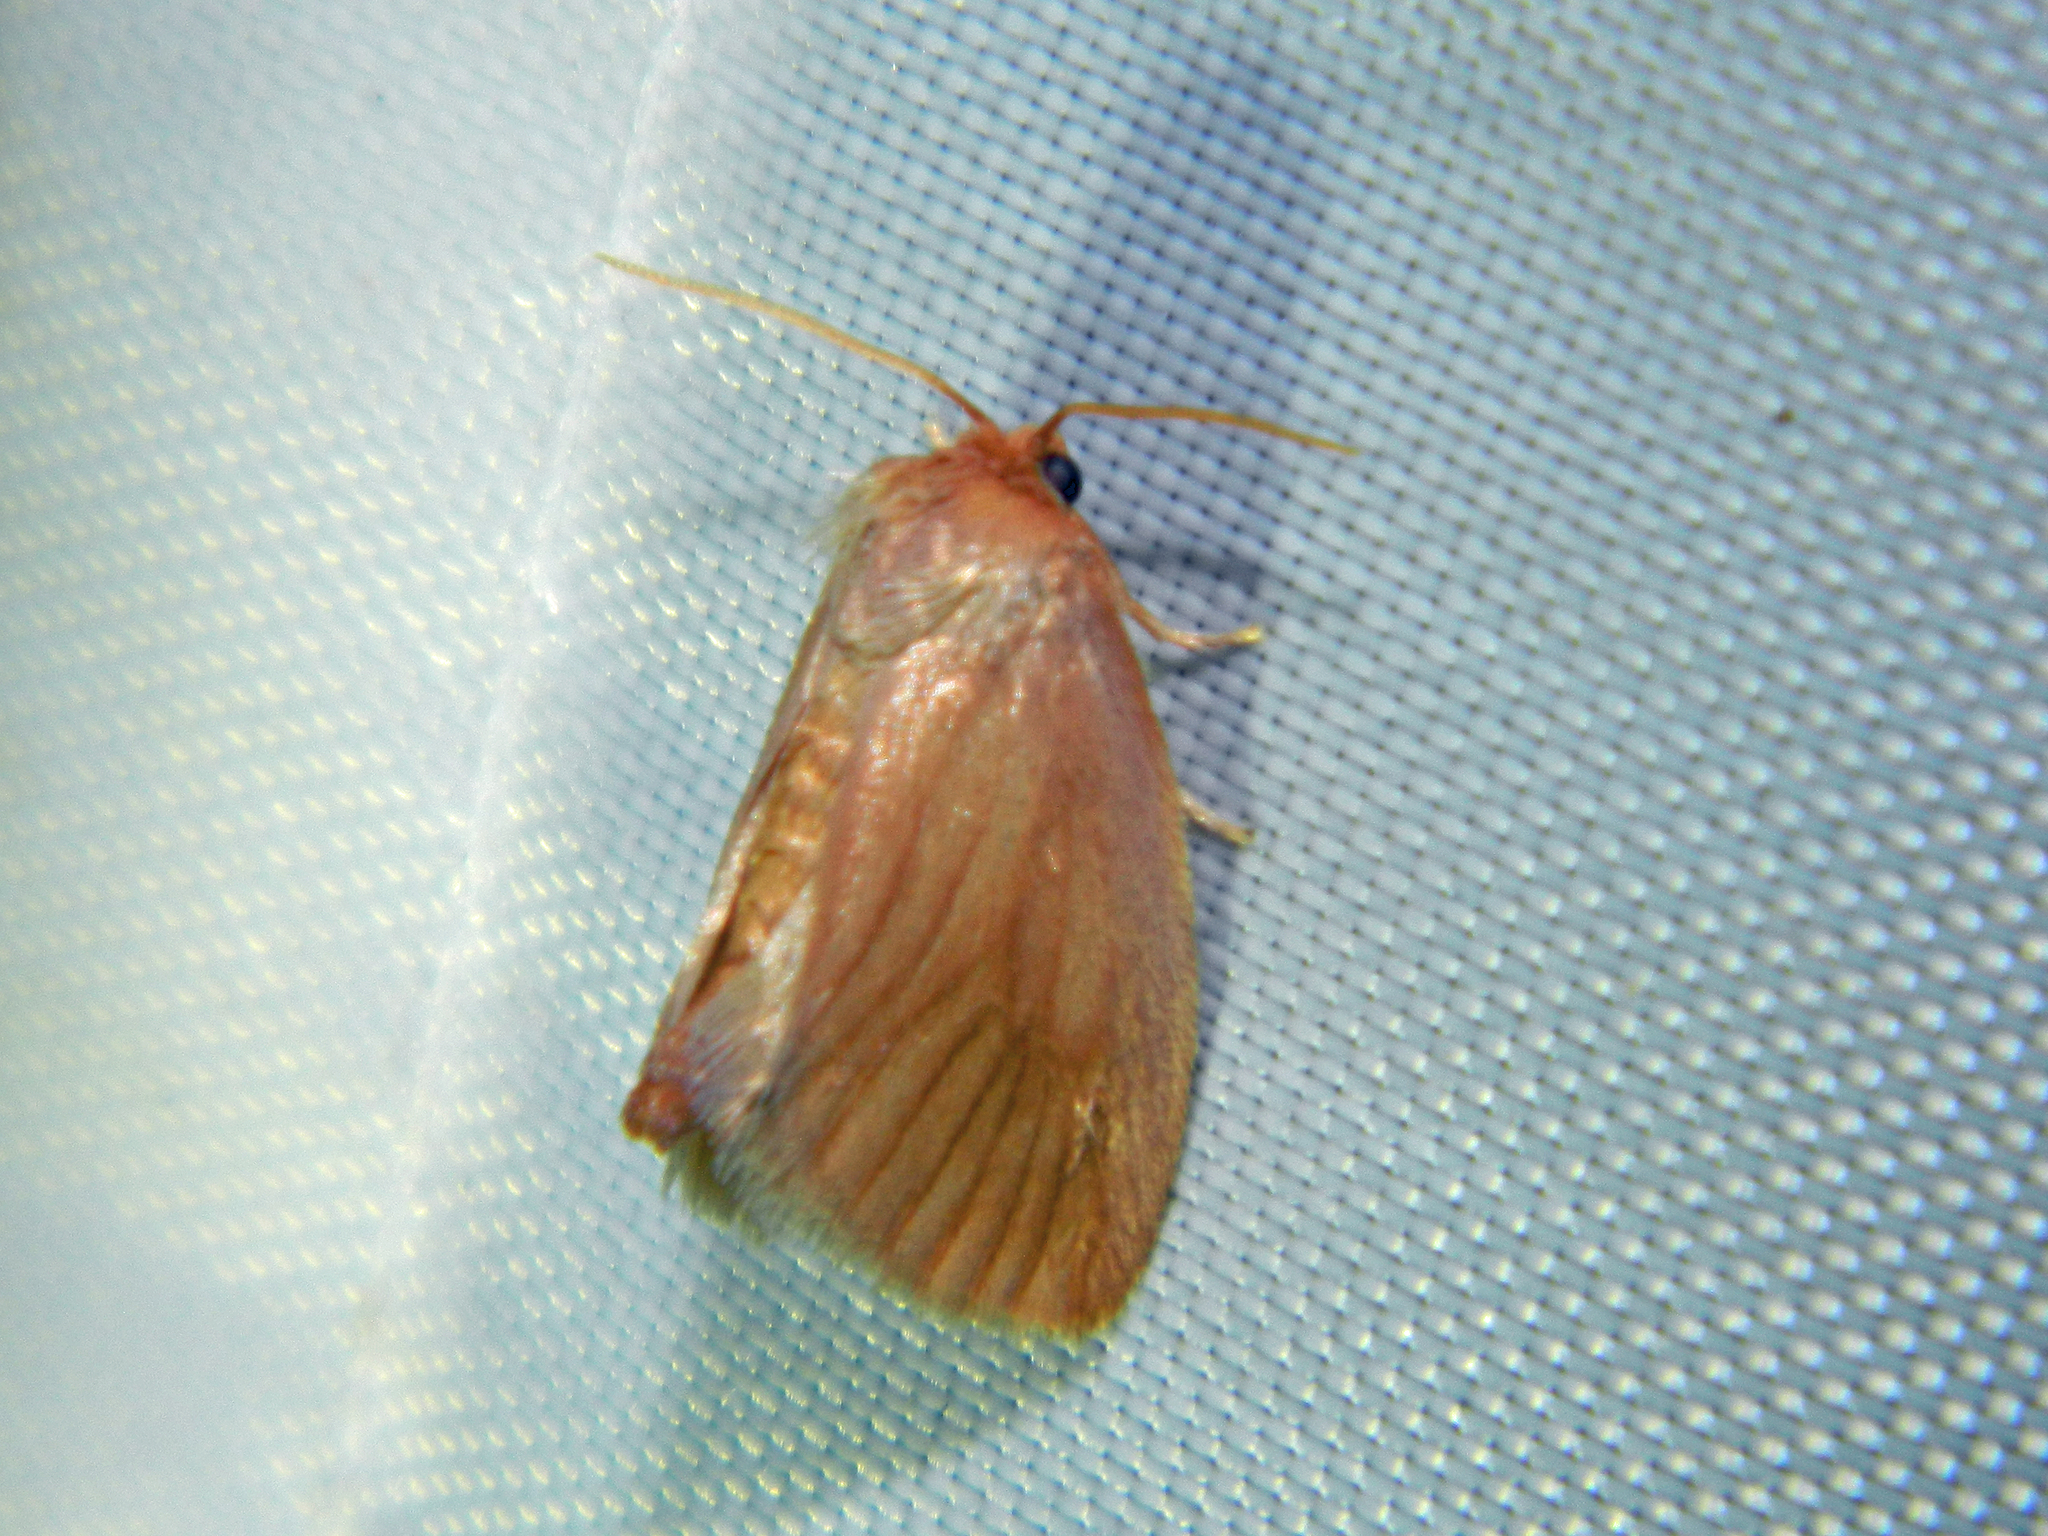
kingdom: Animalia
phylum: Arthropoda
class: Insecta
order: Lepidoptera
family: Limacodidae
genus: Tortricidia
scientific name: Tortricidia testacea
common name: Early button slug moth
